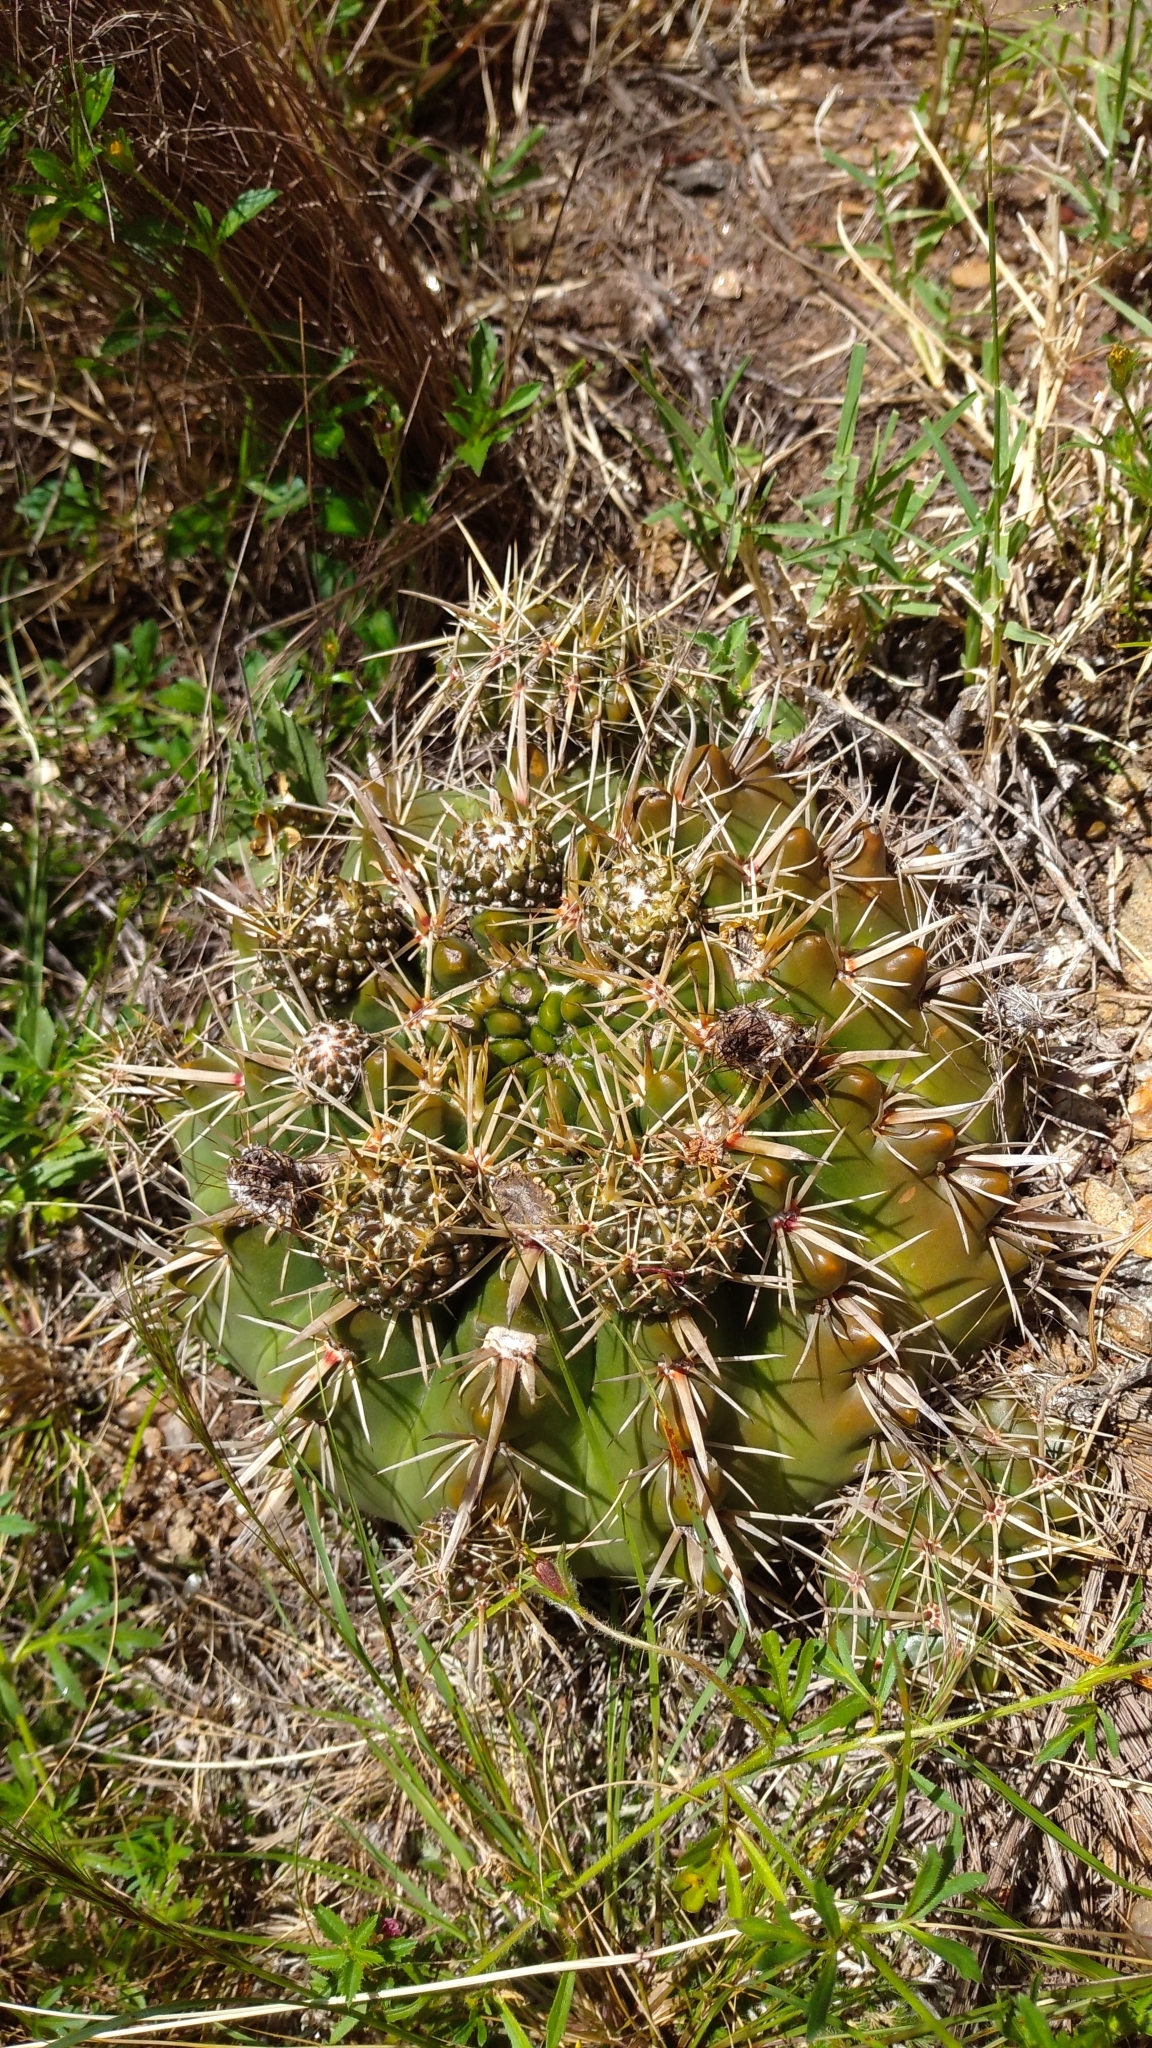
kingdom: Plantae
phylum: Tracheophyta
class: Magnoliopsida
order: Caryophyllales
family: Cactaceae
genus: Parodia
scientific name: Parodia mammulosa
